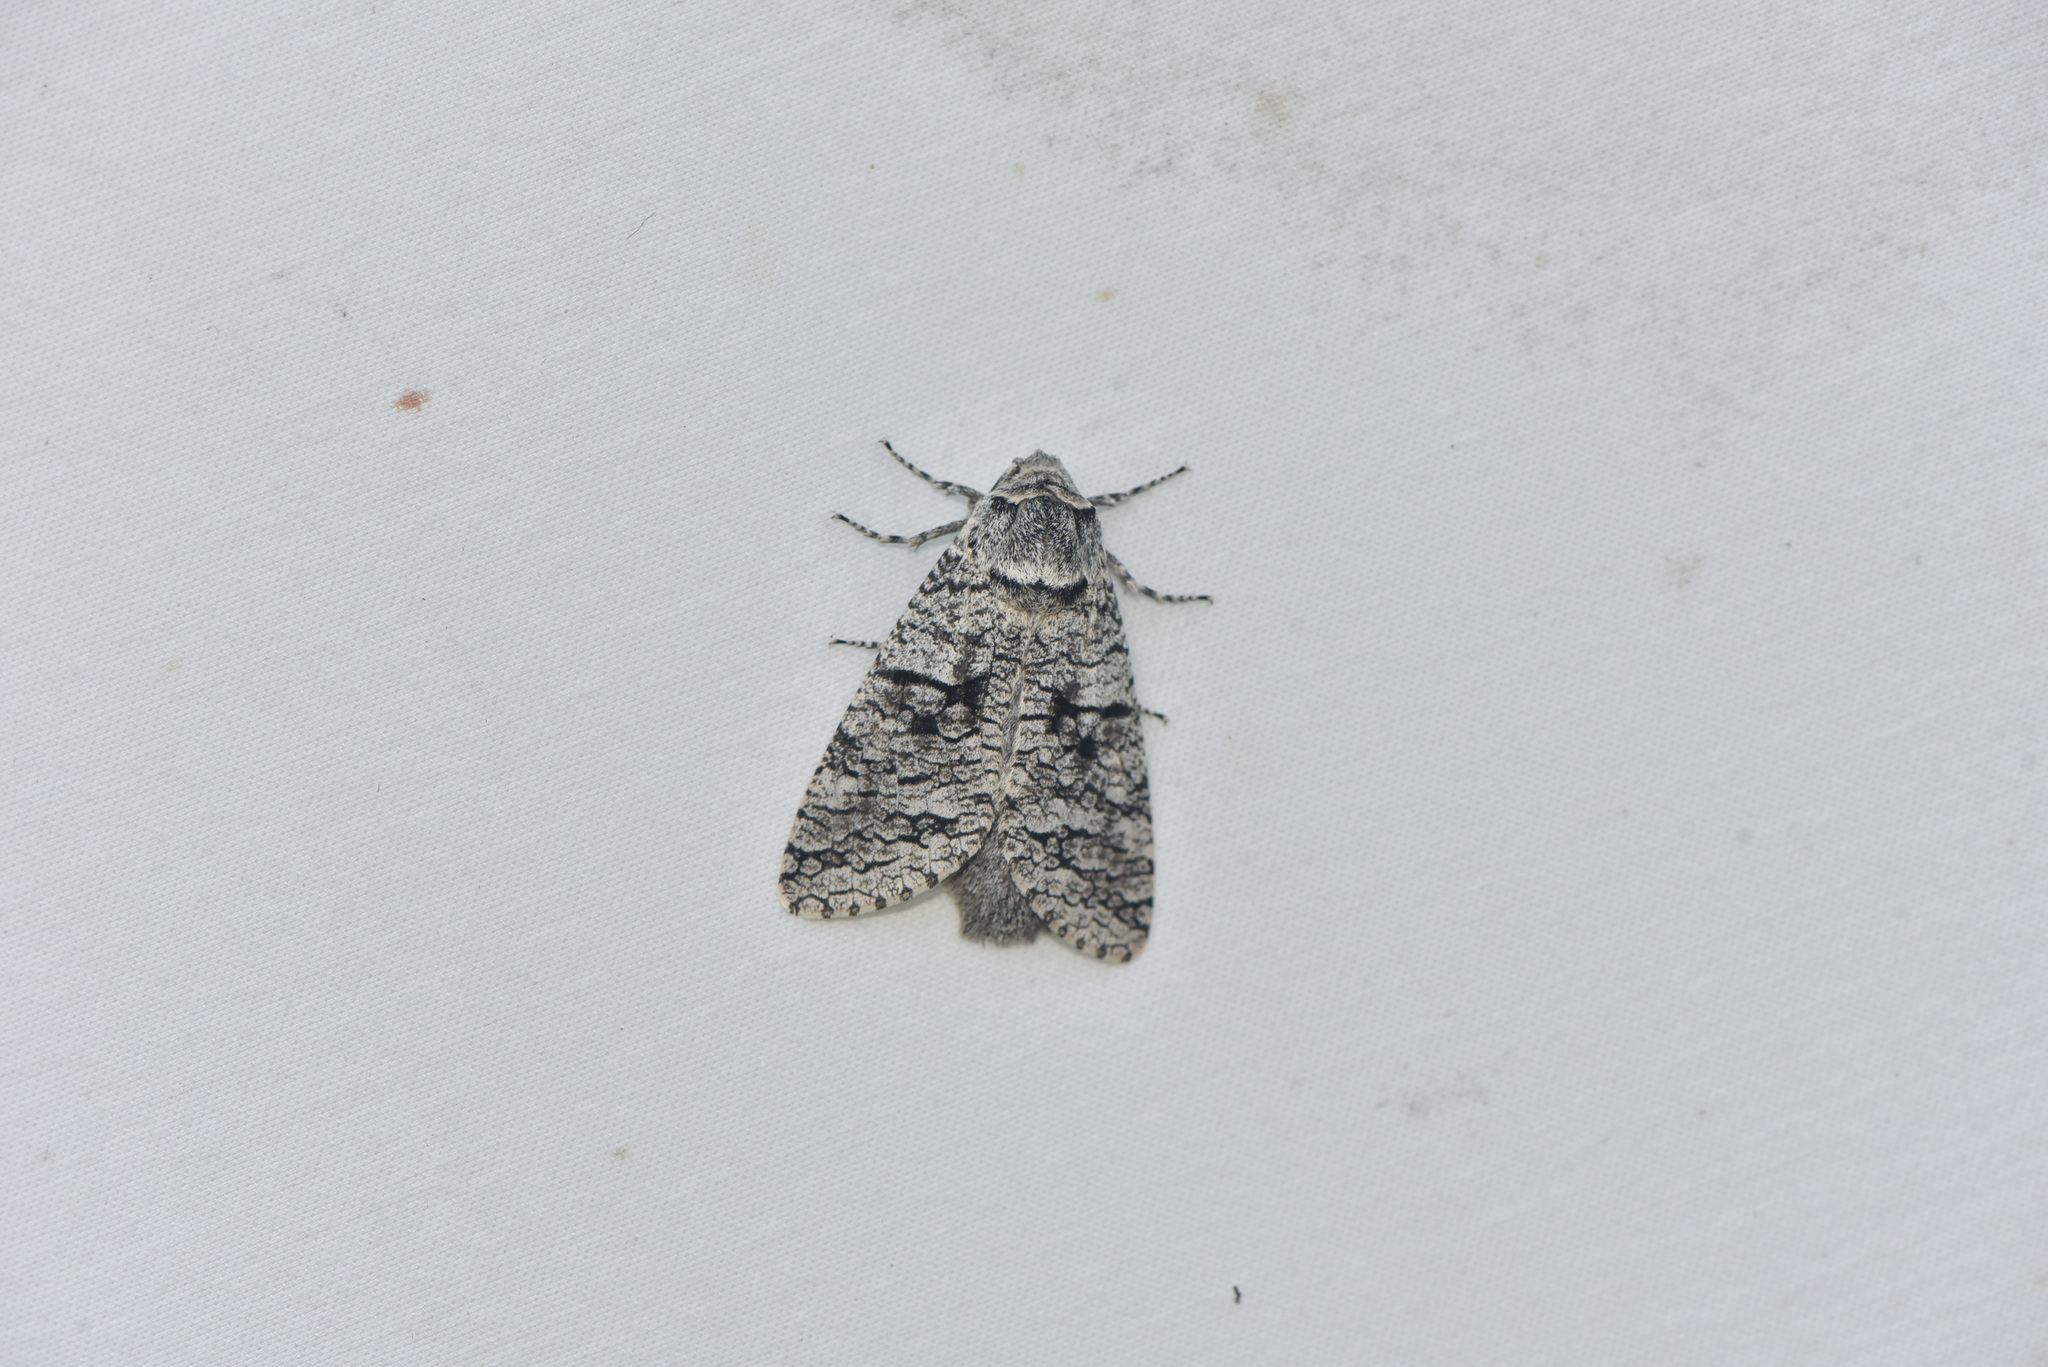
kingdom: Animalia
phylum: Arthropoda
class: Insecta
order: Lepidoptera
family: Cossidae
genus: Acossus
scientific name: Acossus populi
